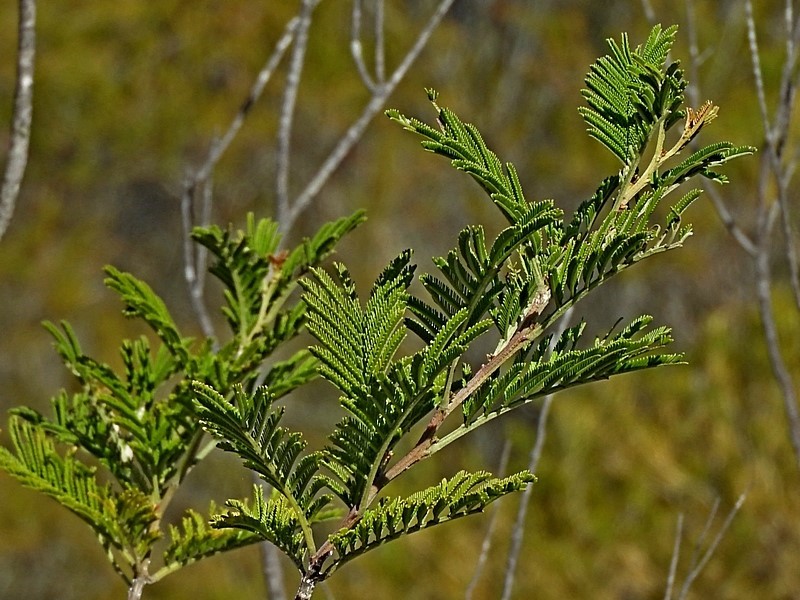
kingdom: Plantae
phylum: Tracheophyta
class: Magnoliopsida
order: Fabales
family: Fabaceae
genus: Acacia
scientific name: Acacia constablei
